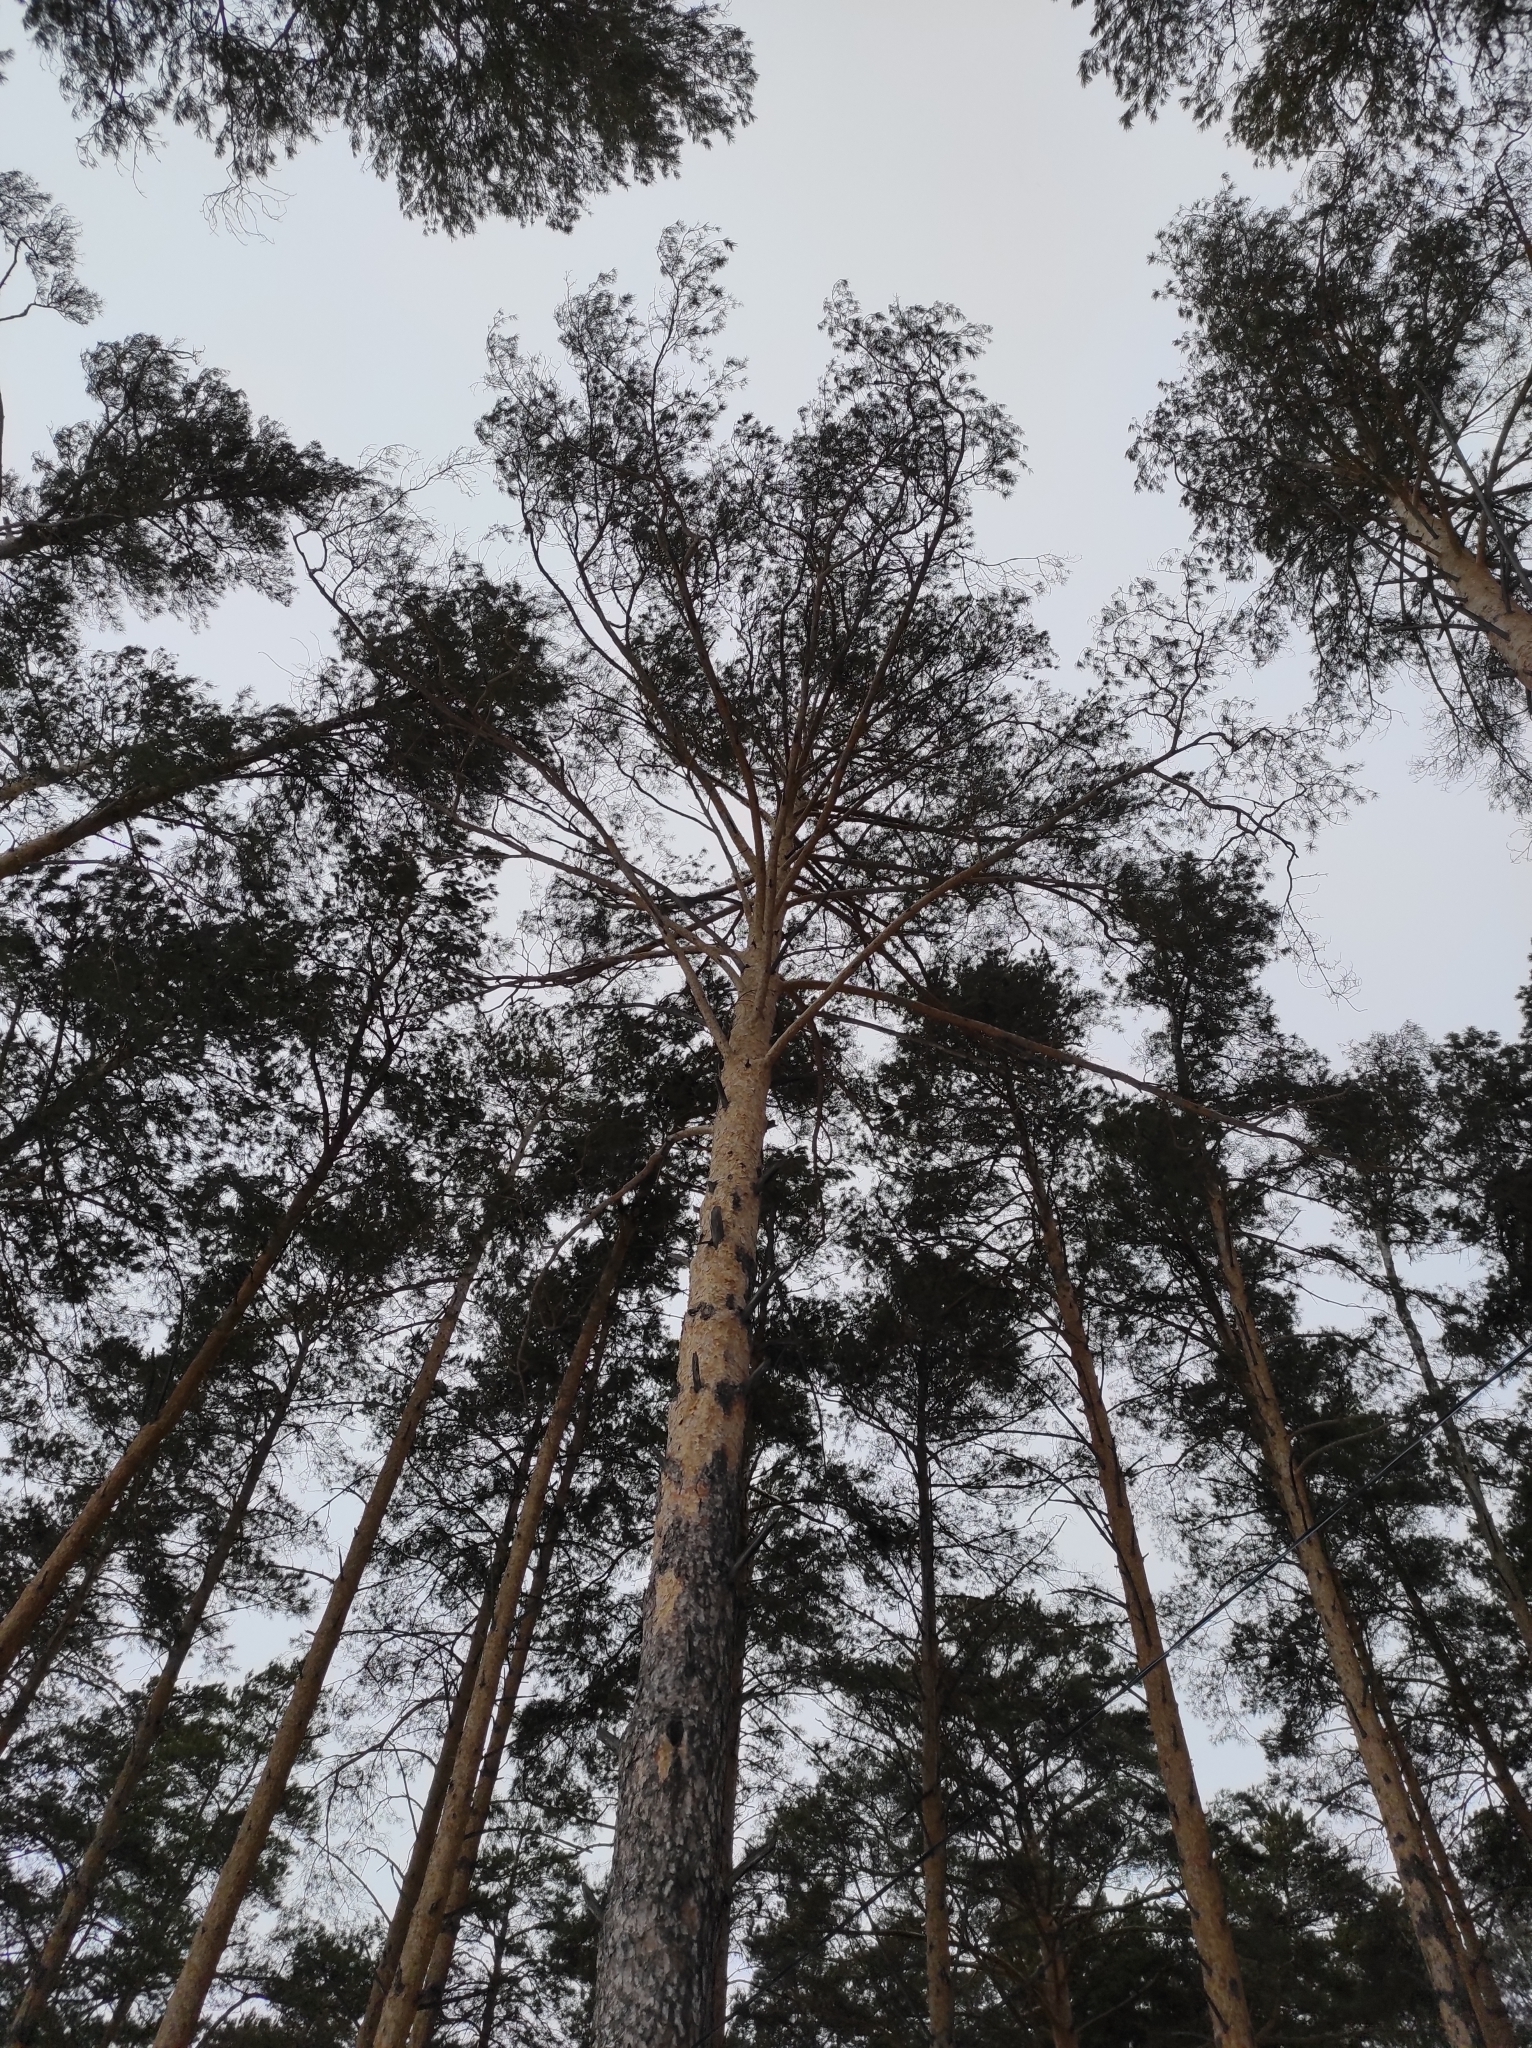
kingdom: Plantae
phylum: Tracheophyta
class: Pinopsida
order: Pinales
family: Pinaceae
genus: Pinus
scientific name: Pinus sylvestris
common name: Scots pine
